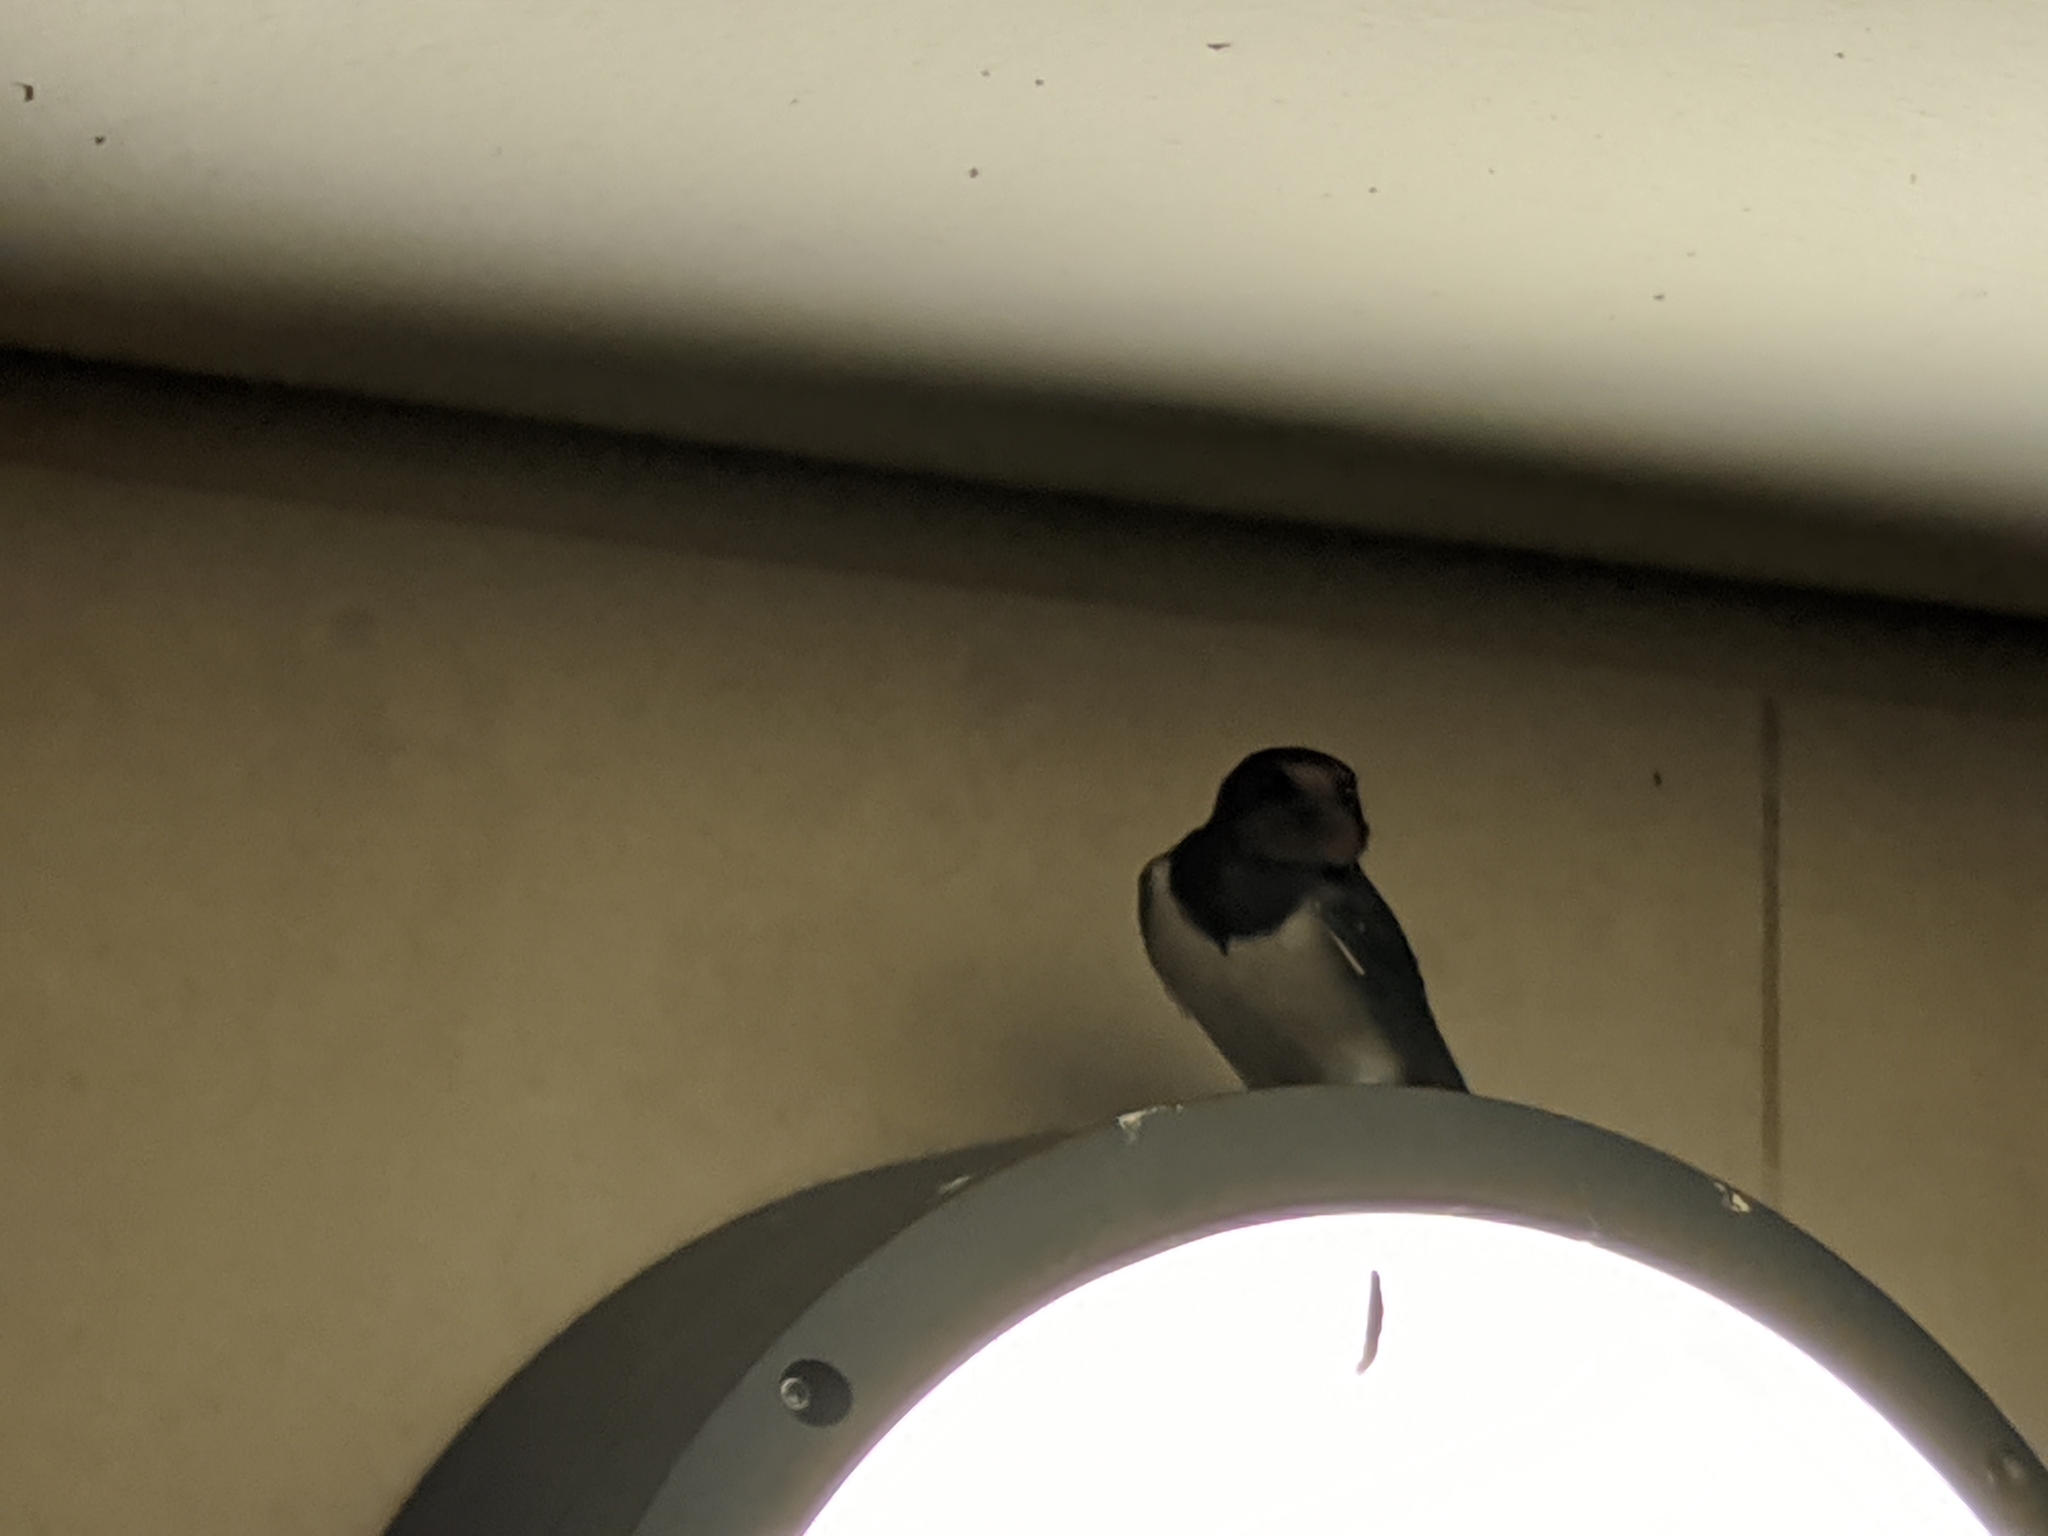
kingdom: Animalia
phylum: Chordata
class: Aves
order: Passeriformes
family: Hirundinidae
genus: Hirundo
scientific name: Hirundo rustica
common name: Barn swallow
